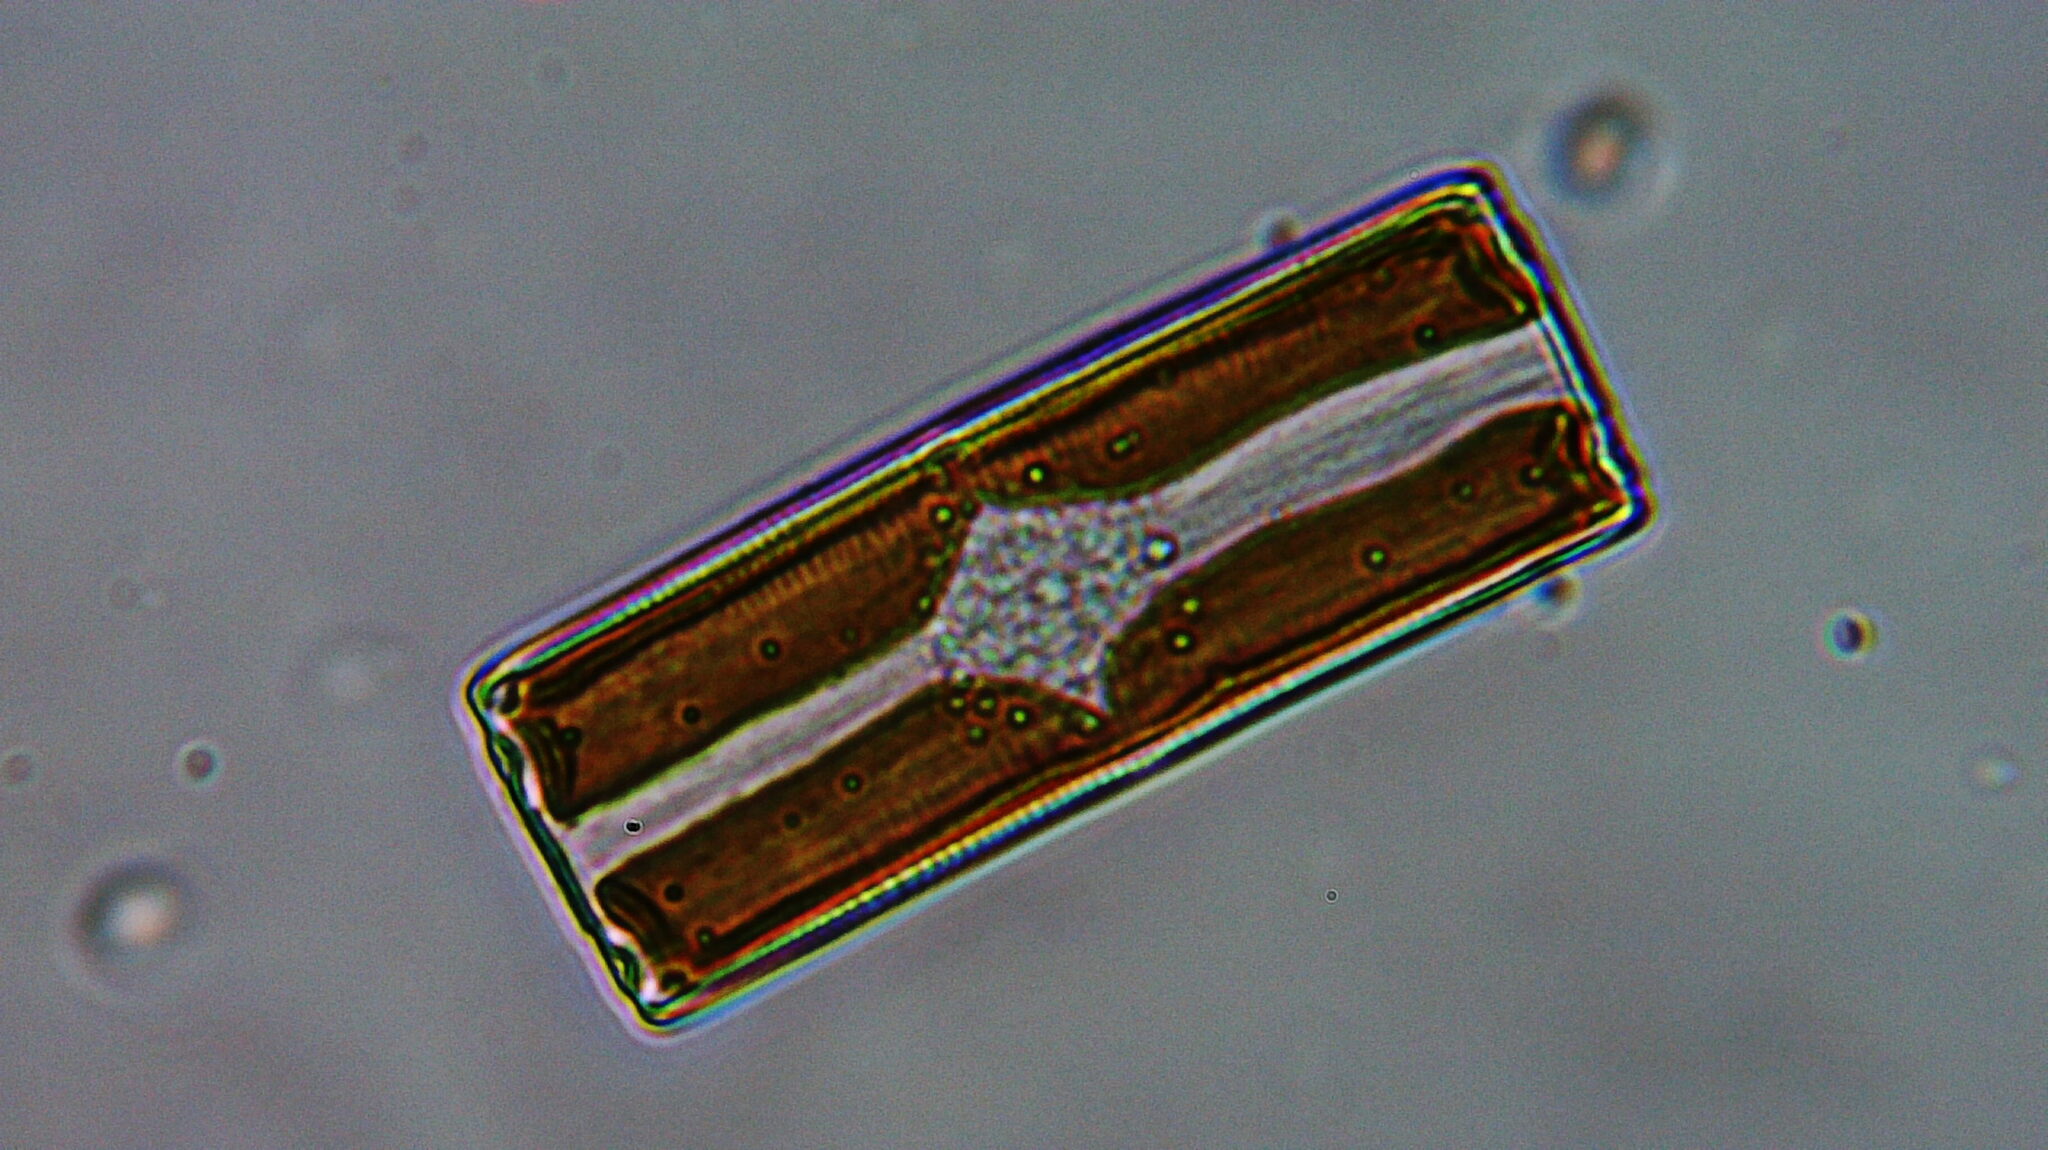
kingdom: Chromista
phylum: Ochrophyta
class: Bacillariophyceae
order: Eunotiales
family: Eunotiaceae
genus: Eunotia
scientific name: Eunotia
